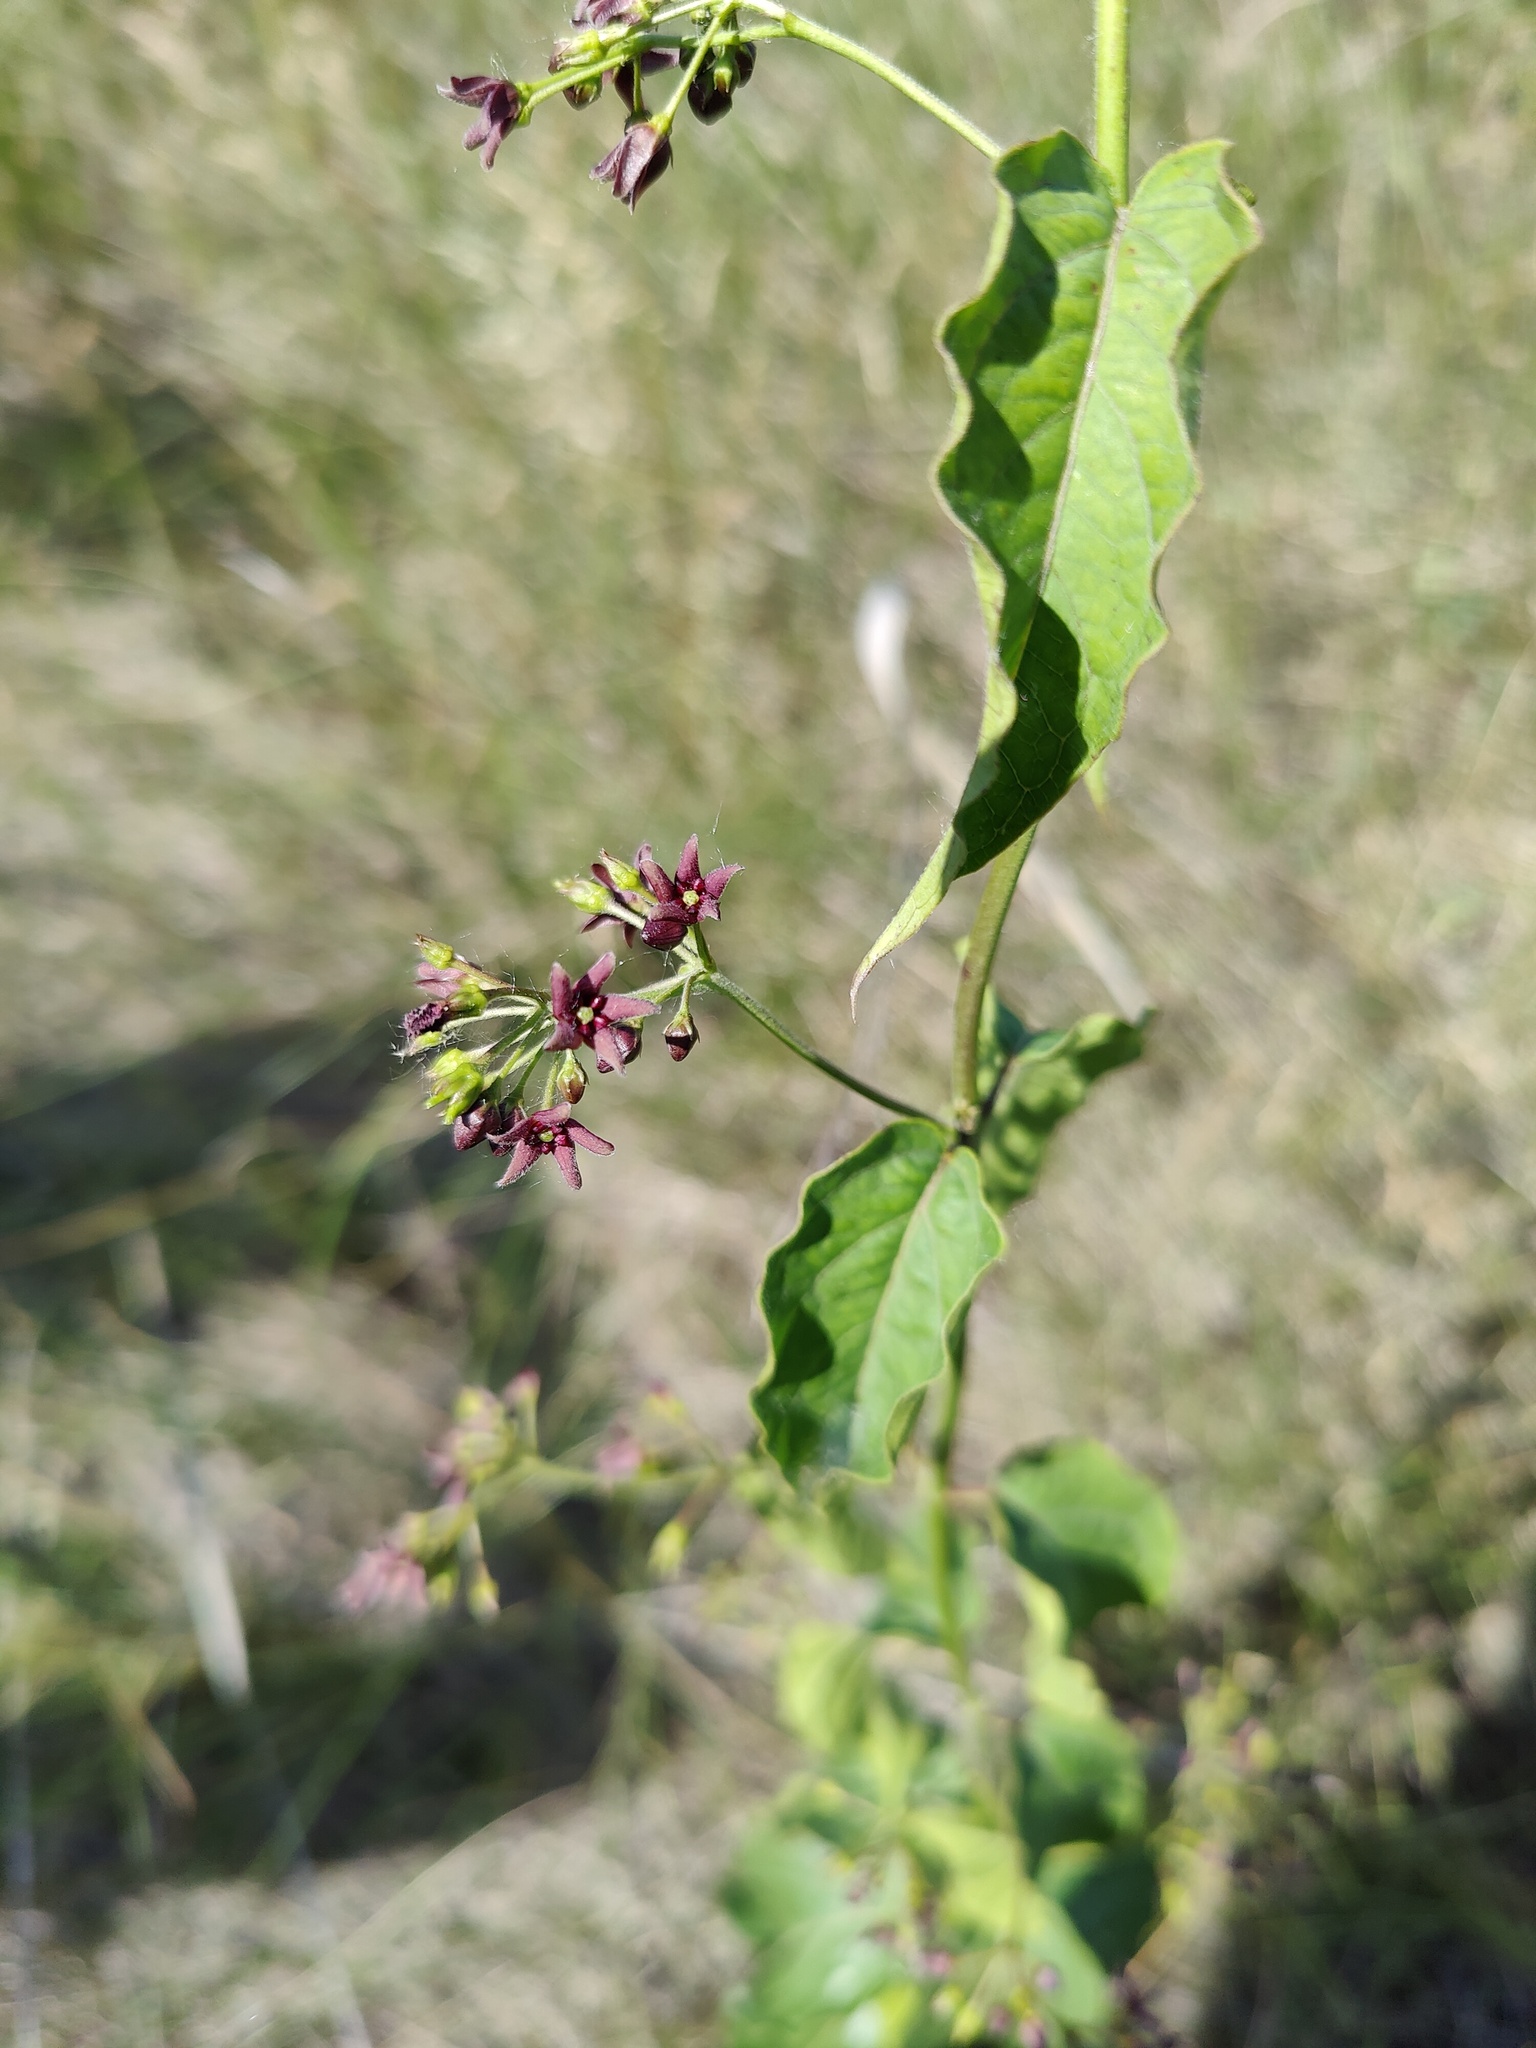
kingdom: Plantae
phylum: Tracheophyta
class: Magnoliopsida
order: Gentianales
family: Apocynaceae
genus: Vincetoxicum
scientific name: Vincetoxicum scandens
